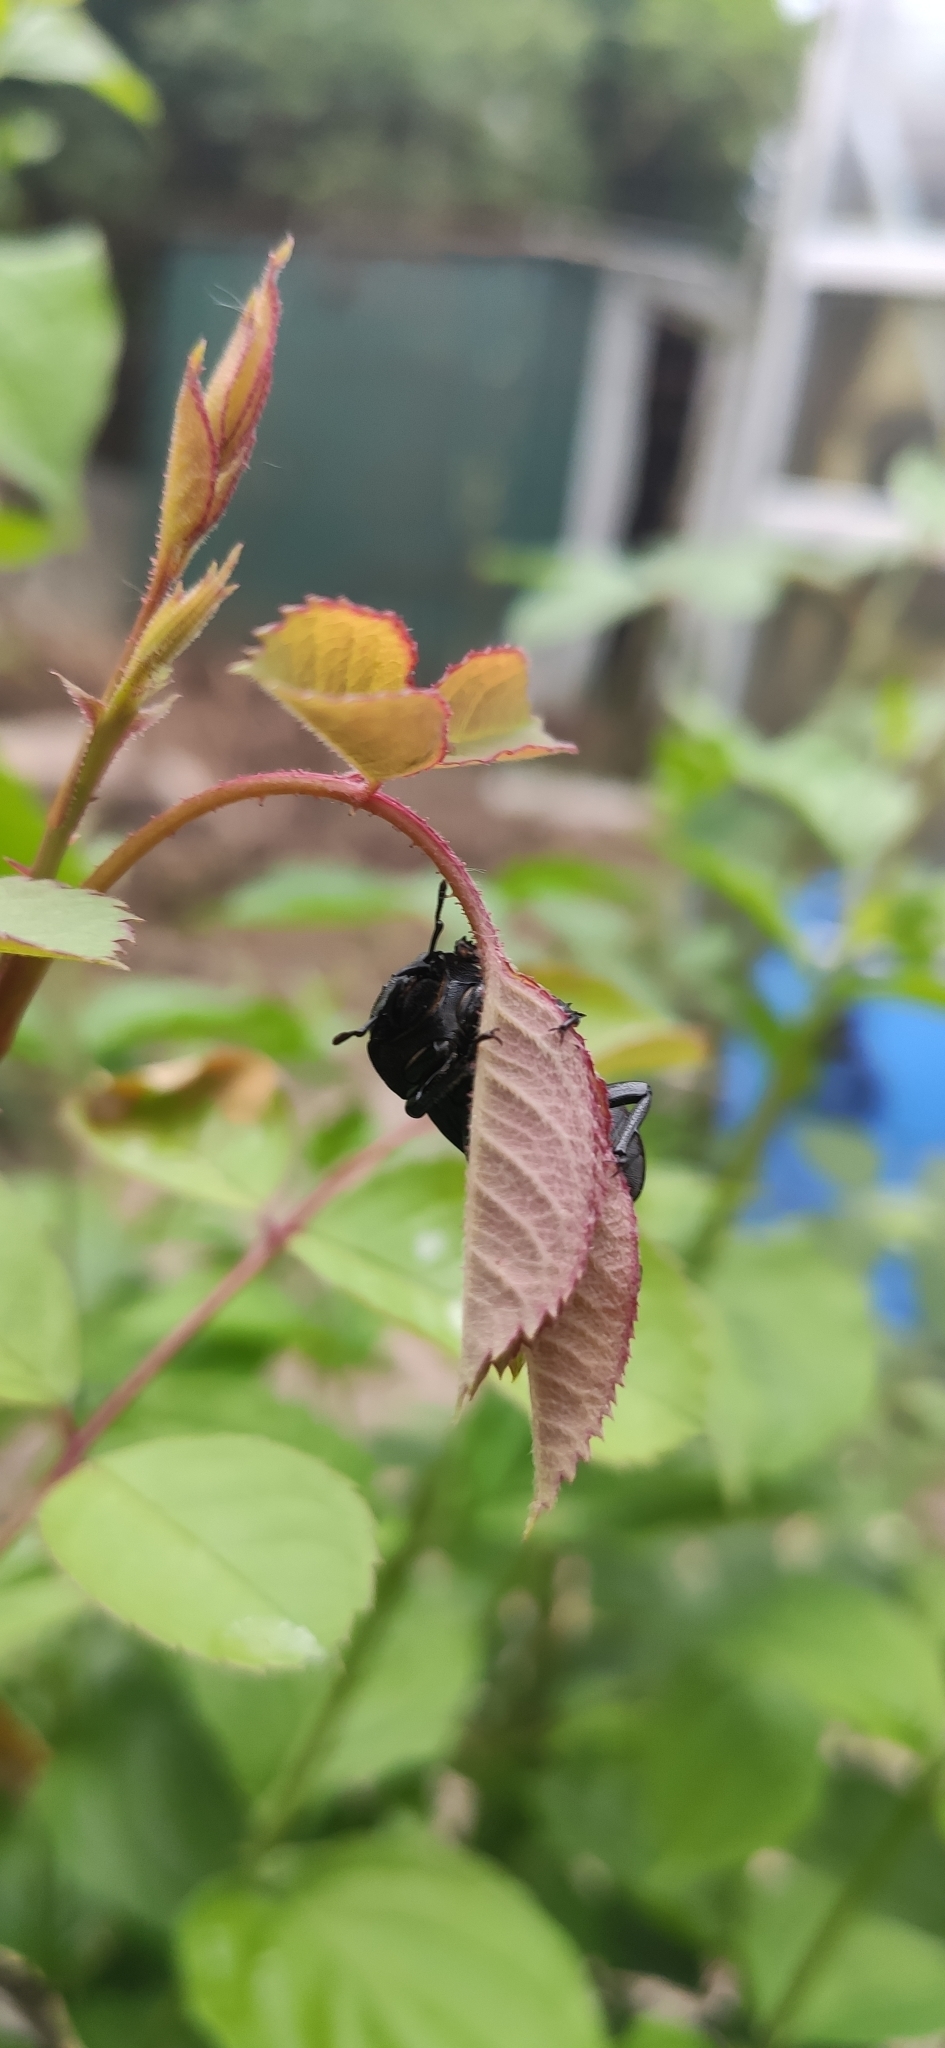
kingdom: Animalia
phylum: Arthropoda
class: Insecta
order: Coleoptera
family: Lucanidae
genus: Dorcus
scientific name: Dorcus parallelipipedus
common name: Lesser stag beetle
